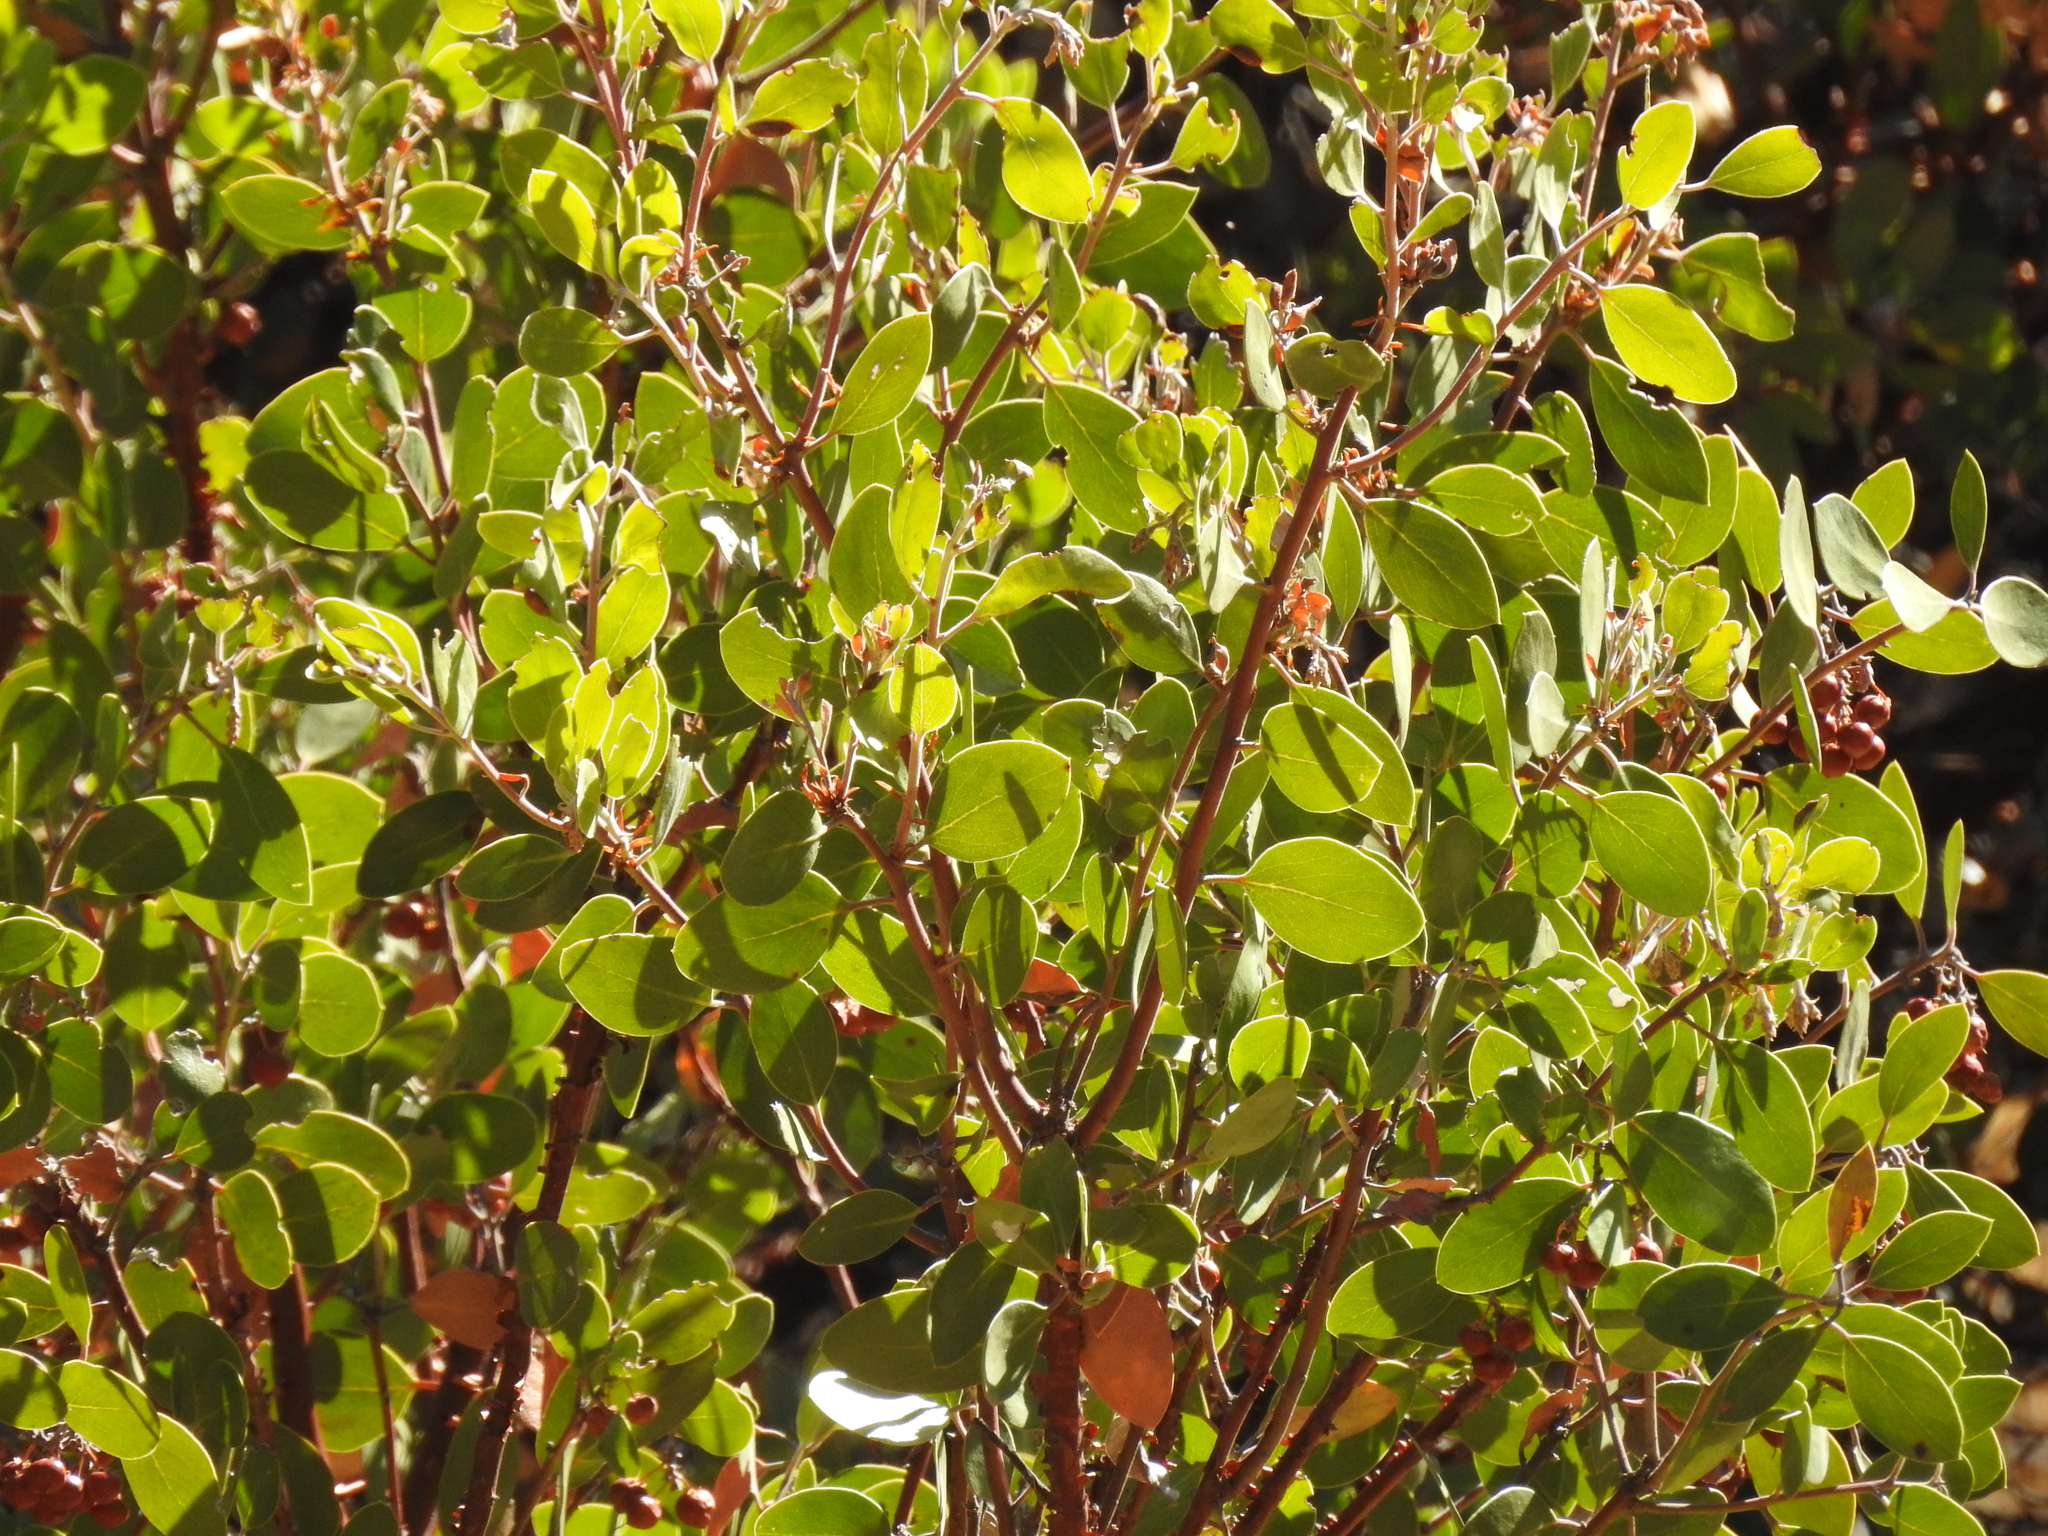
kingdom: Plantae
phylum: Tracheophyta
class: Magnoliopsida
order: Ericales
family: Ericaceae
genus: Arctostaphylos
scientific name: Arctostaphylos manzanita
